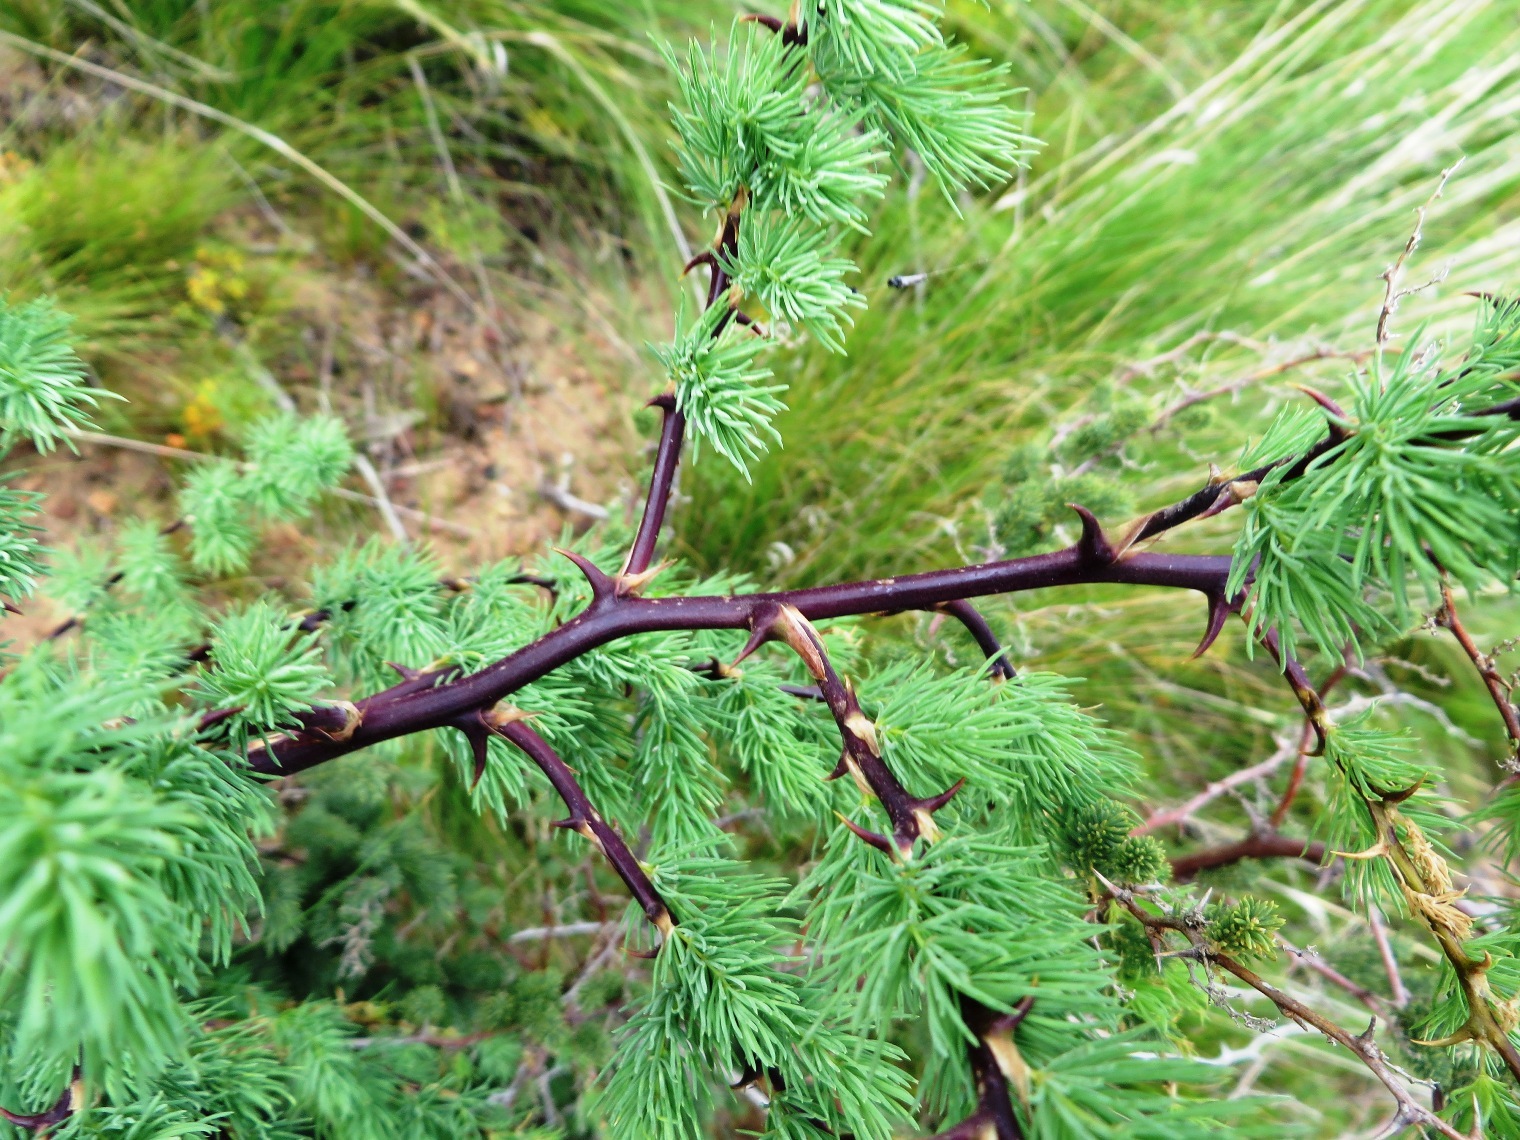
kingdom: Plantae
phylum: Tracheophyta
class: Liliopsida
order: Asparagales
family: Asparagaceae
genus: Asparagus
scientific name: Asparagus rubicundus
